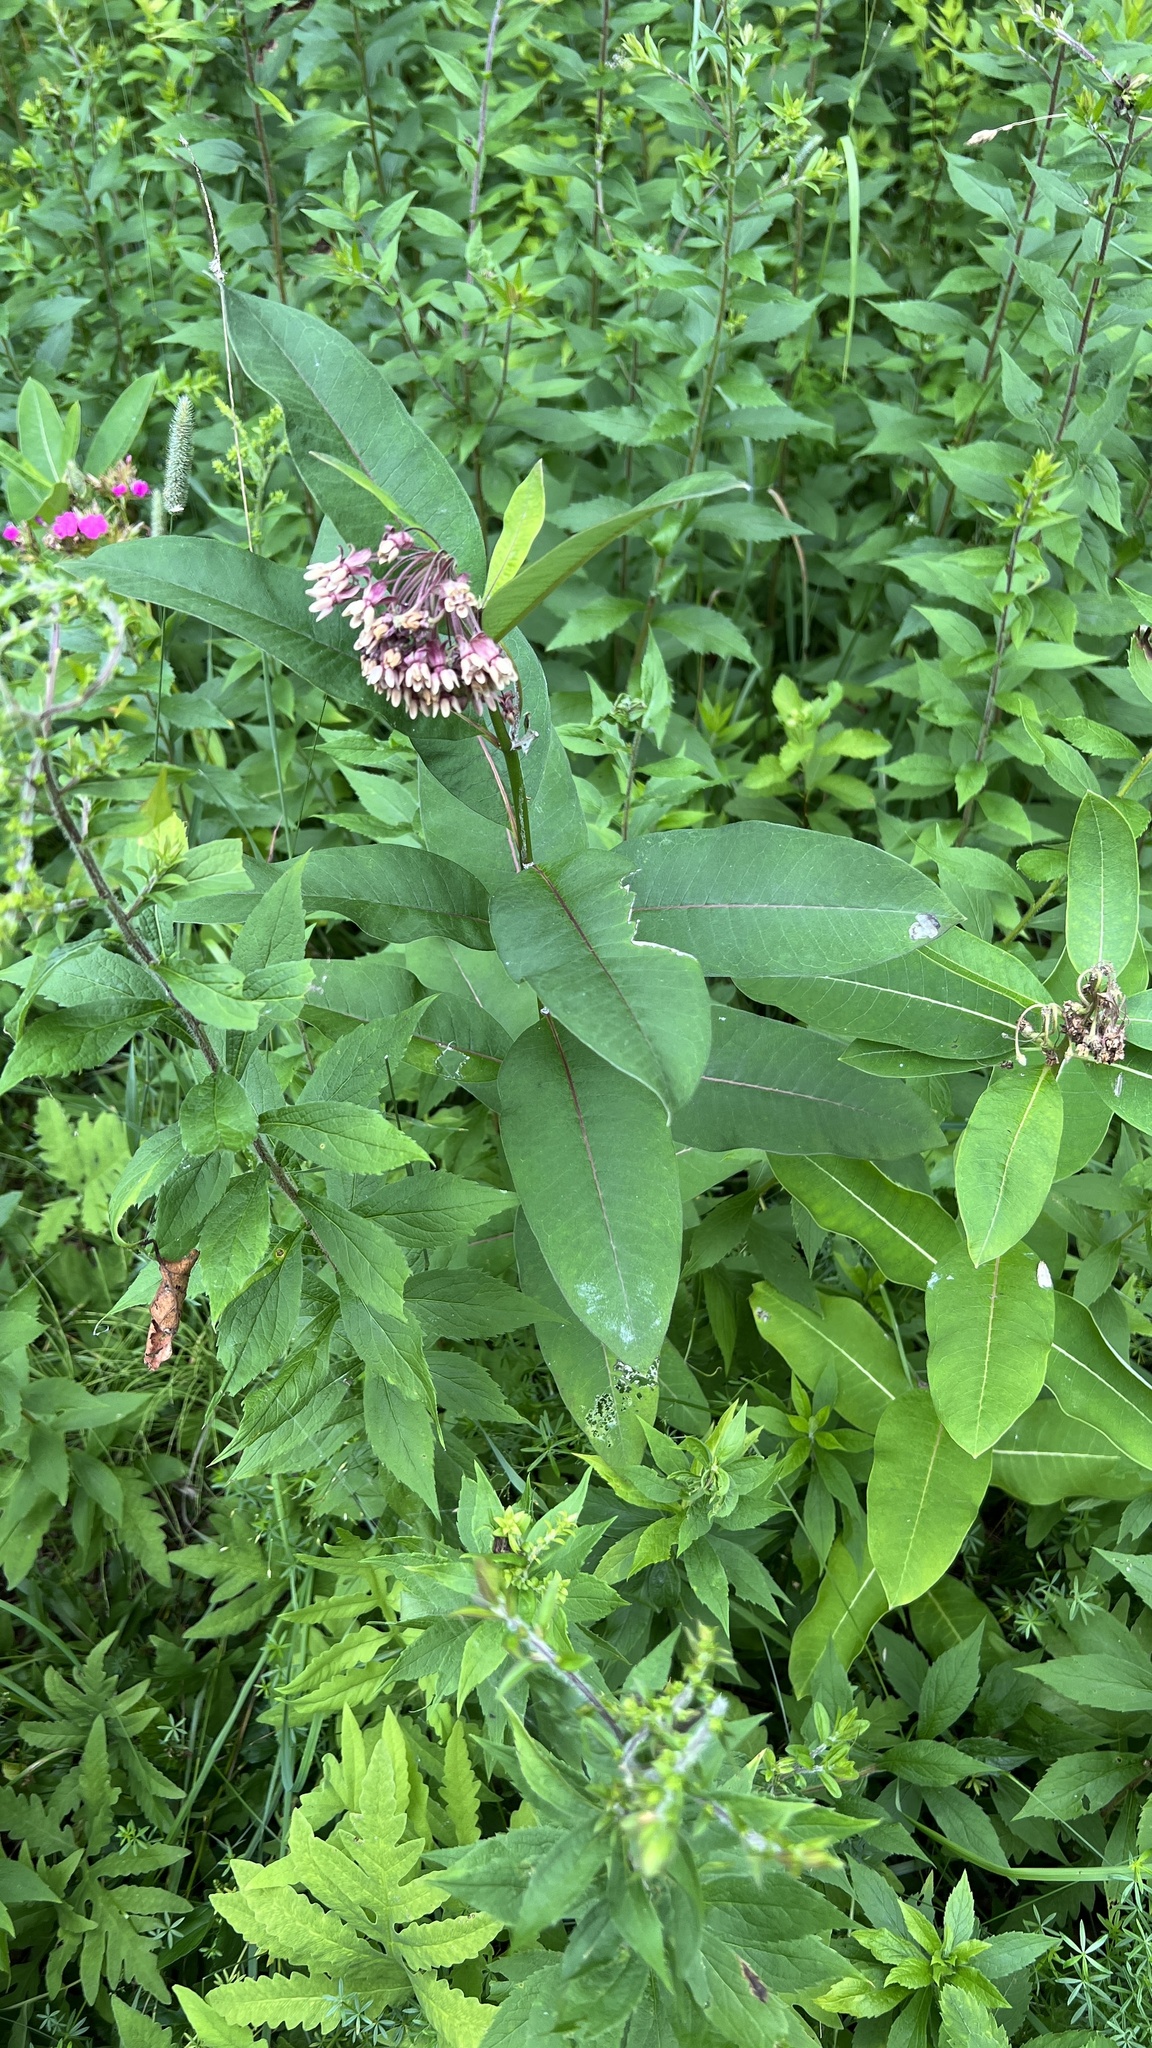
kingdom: Plantae
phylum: Tracheophyta
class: Magnoliopsida
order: Gentianales
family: Apocynaceae
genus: Asclepias
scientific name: Asclepias syriaca
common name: Common milkweed
